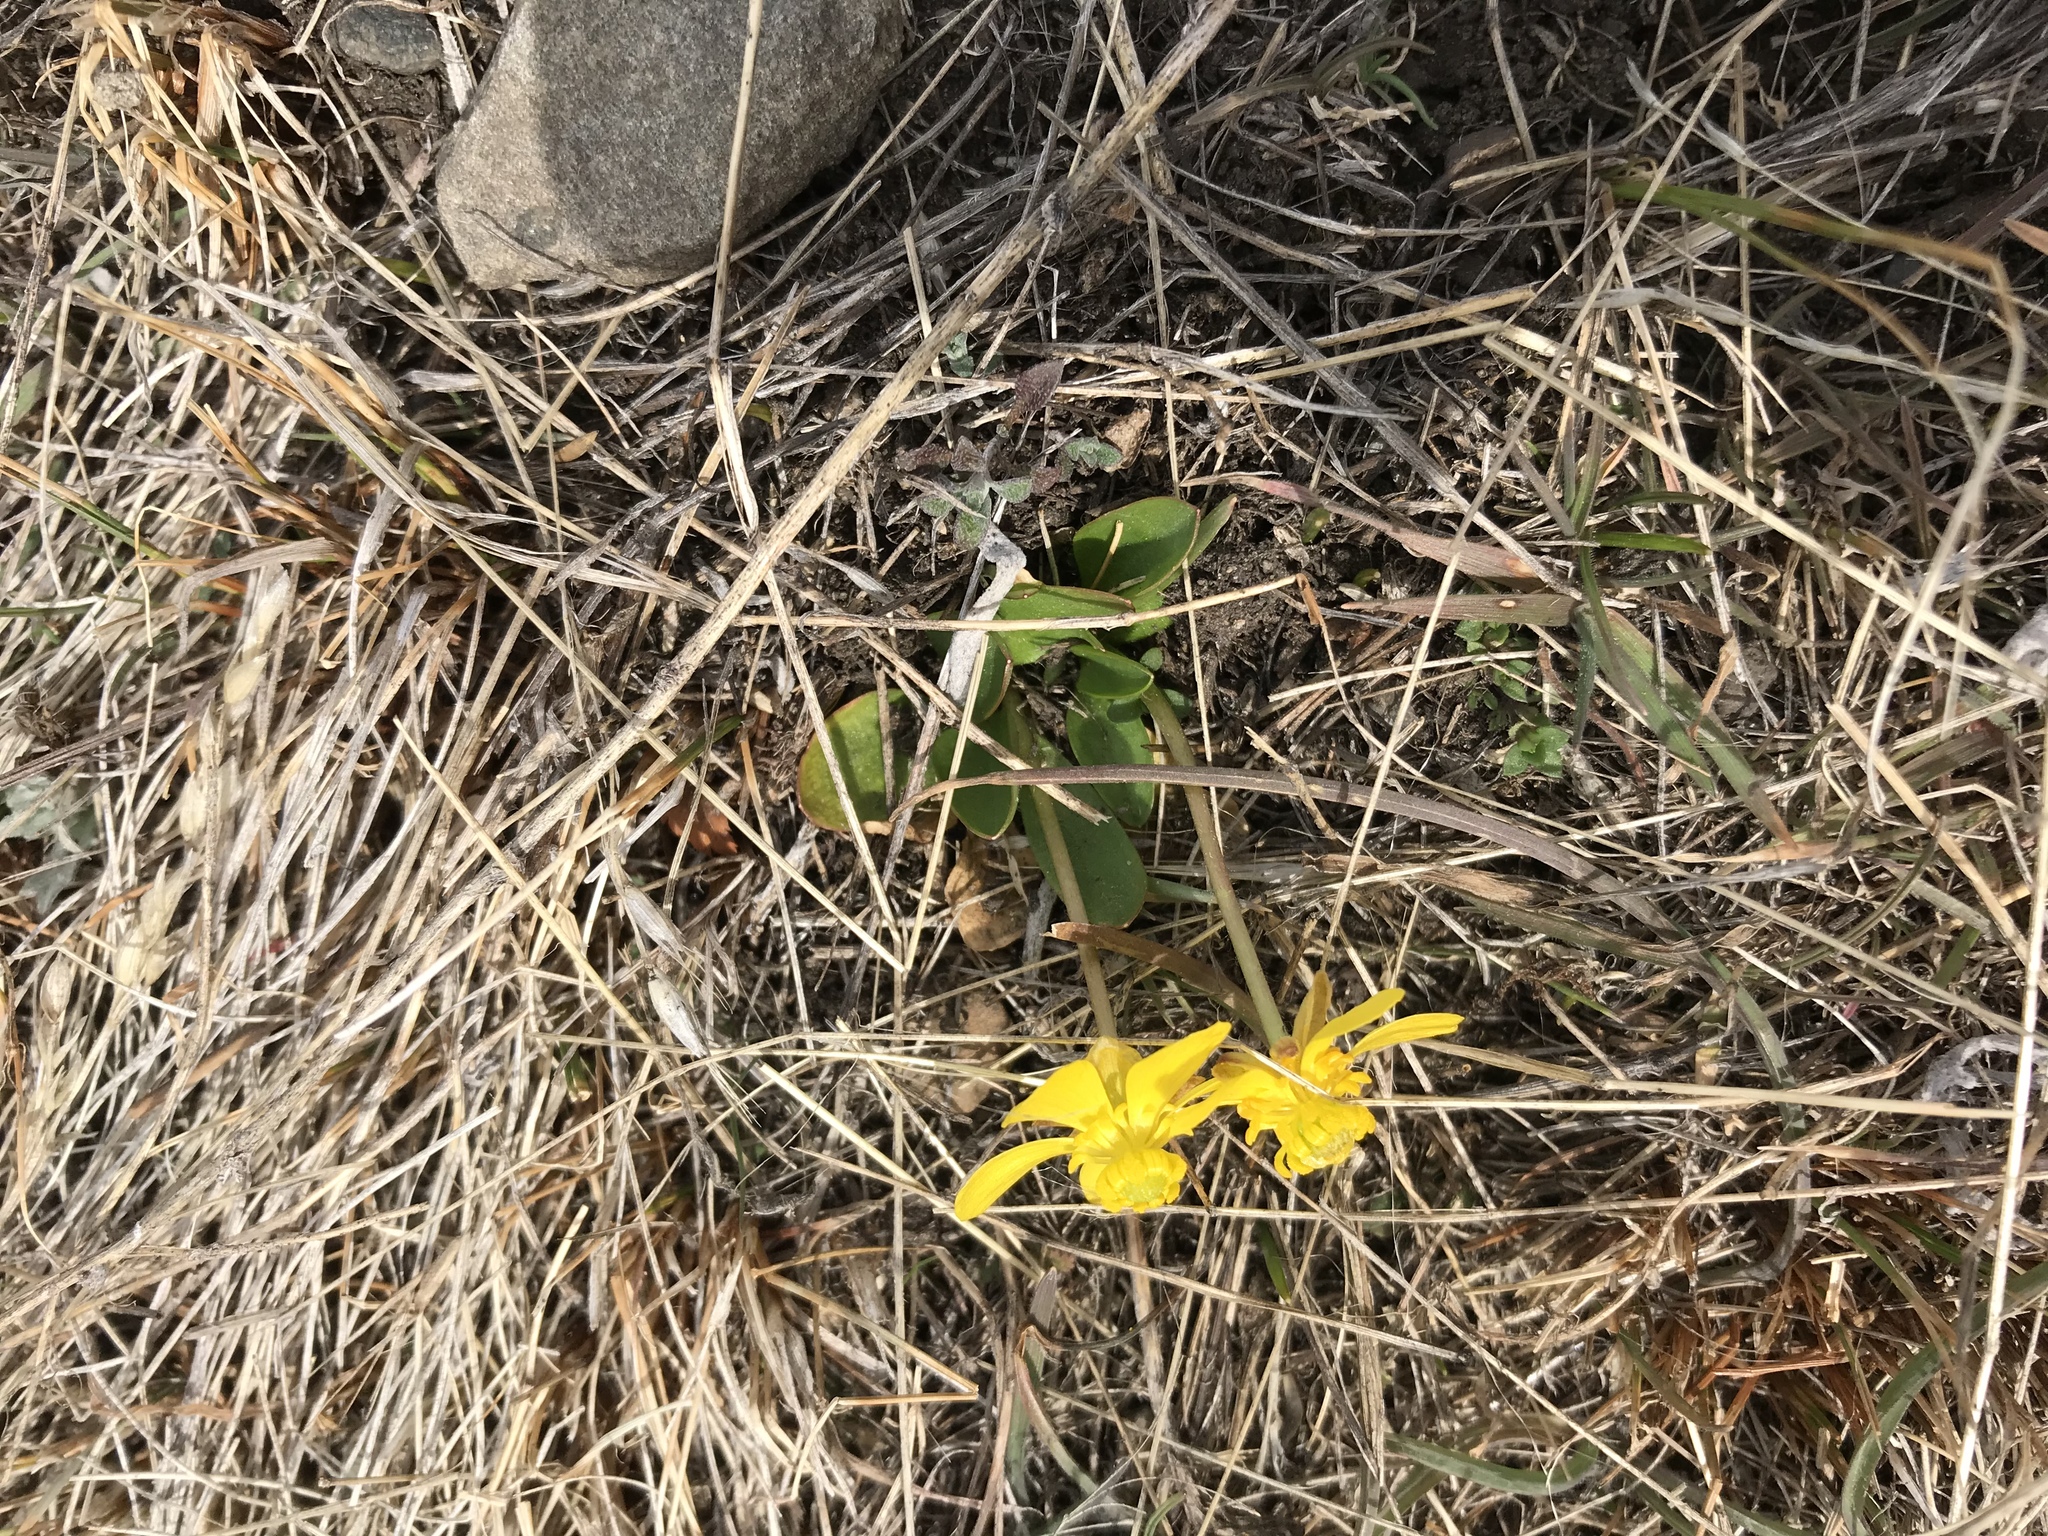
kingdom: Plantae
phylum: Tracheophyta
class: Magnoliopsida
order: Ranunculales
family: Ranunculaceae
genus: Ranunculus
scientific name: Ranunculus glaberrimus
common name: Sagebrush buttercup
